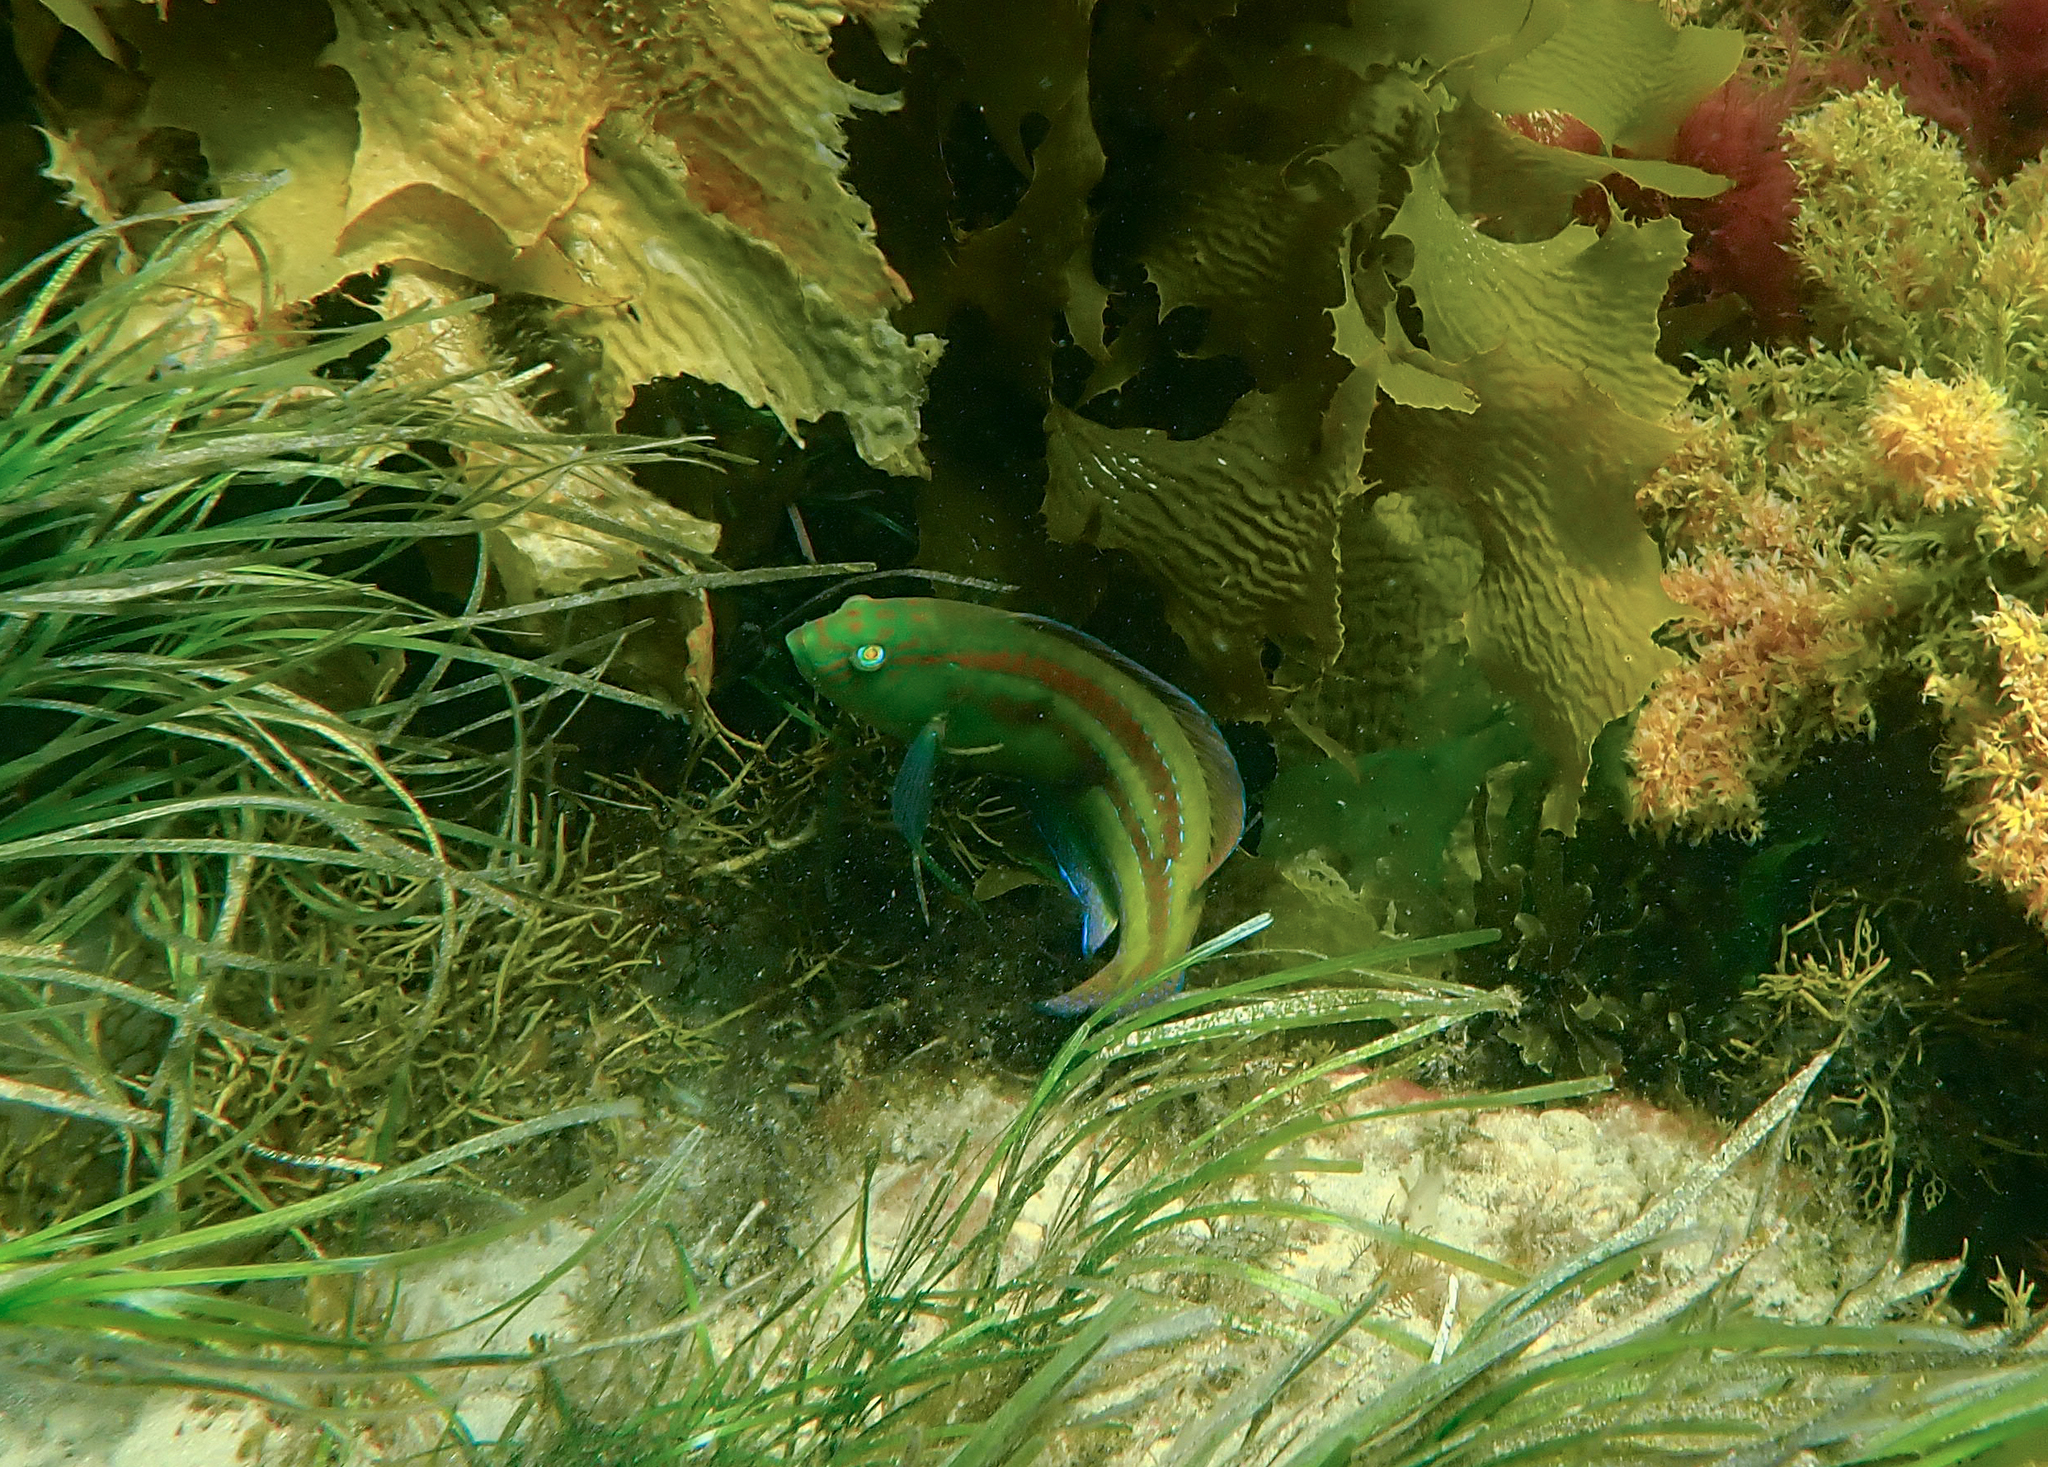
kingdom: Animalia
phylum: Chordata
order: Perciformes
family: Labridae
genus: Pictilabrus
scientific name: Pictilabrus laticlavius
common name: Patrician wrasse
